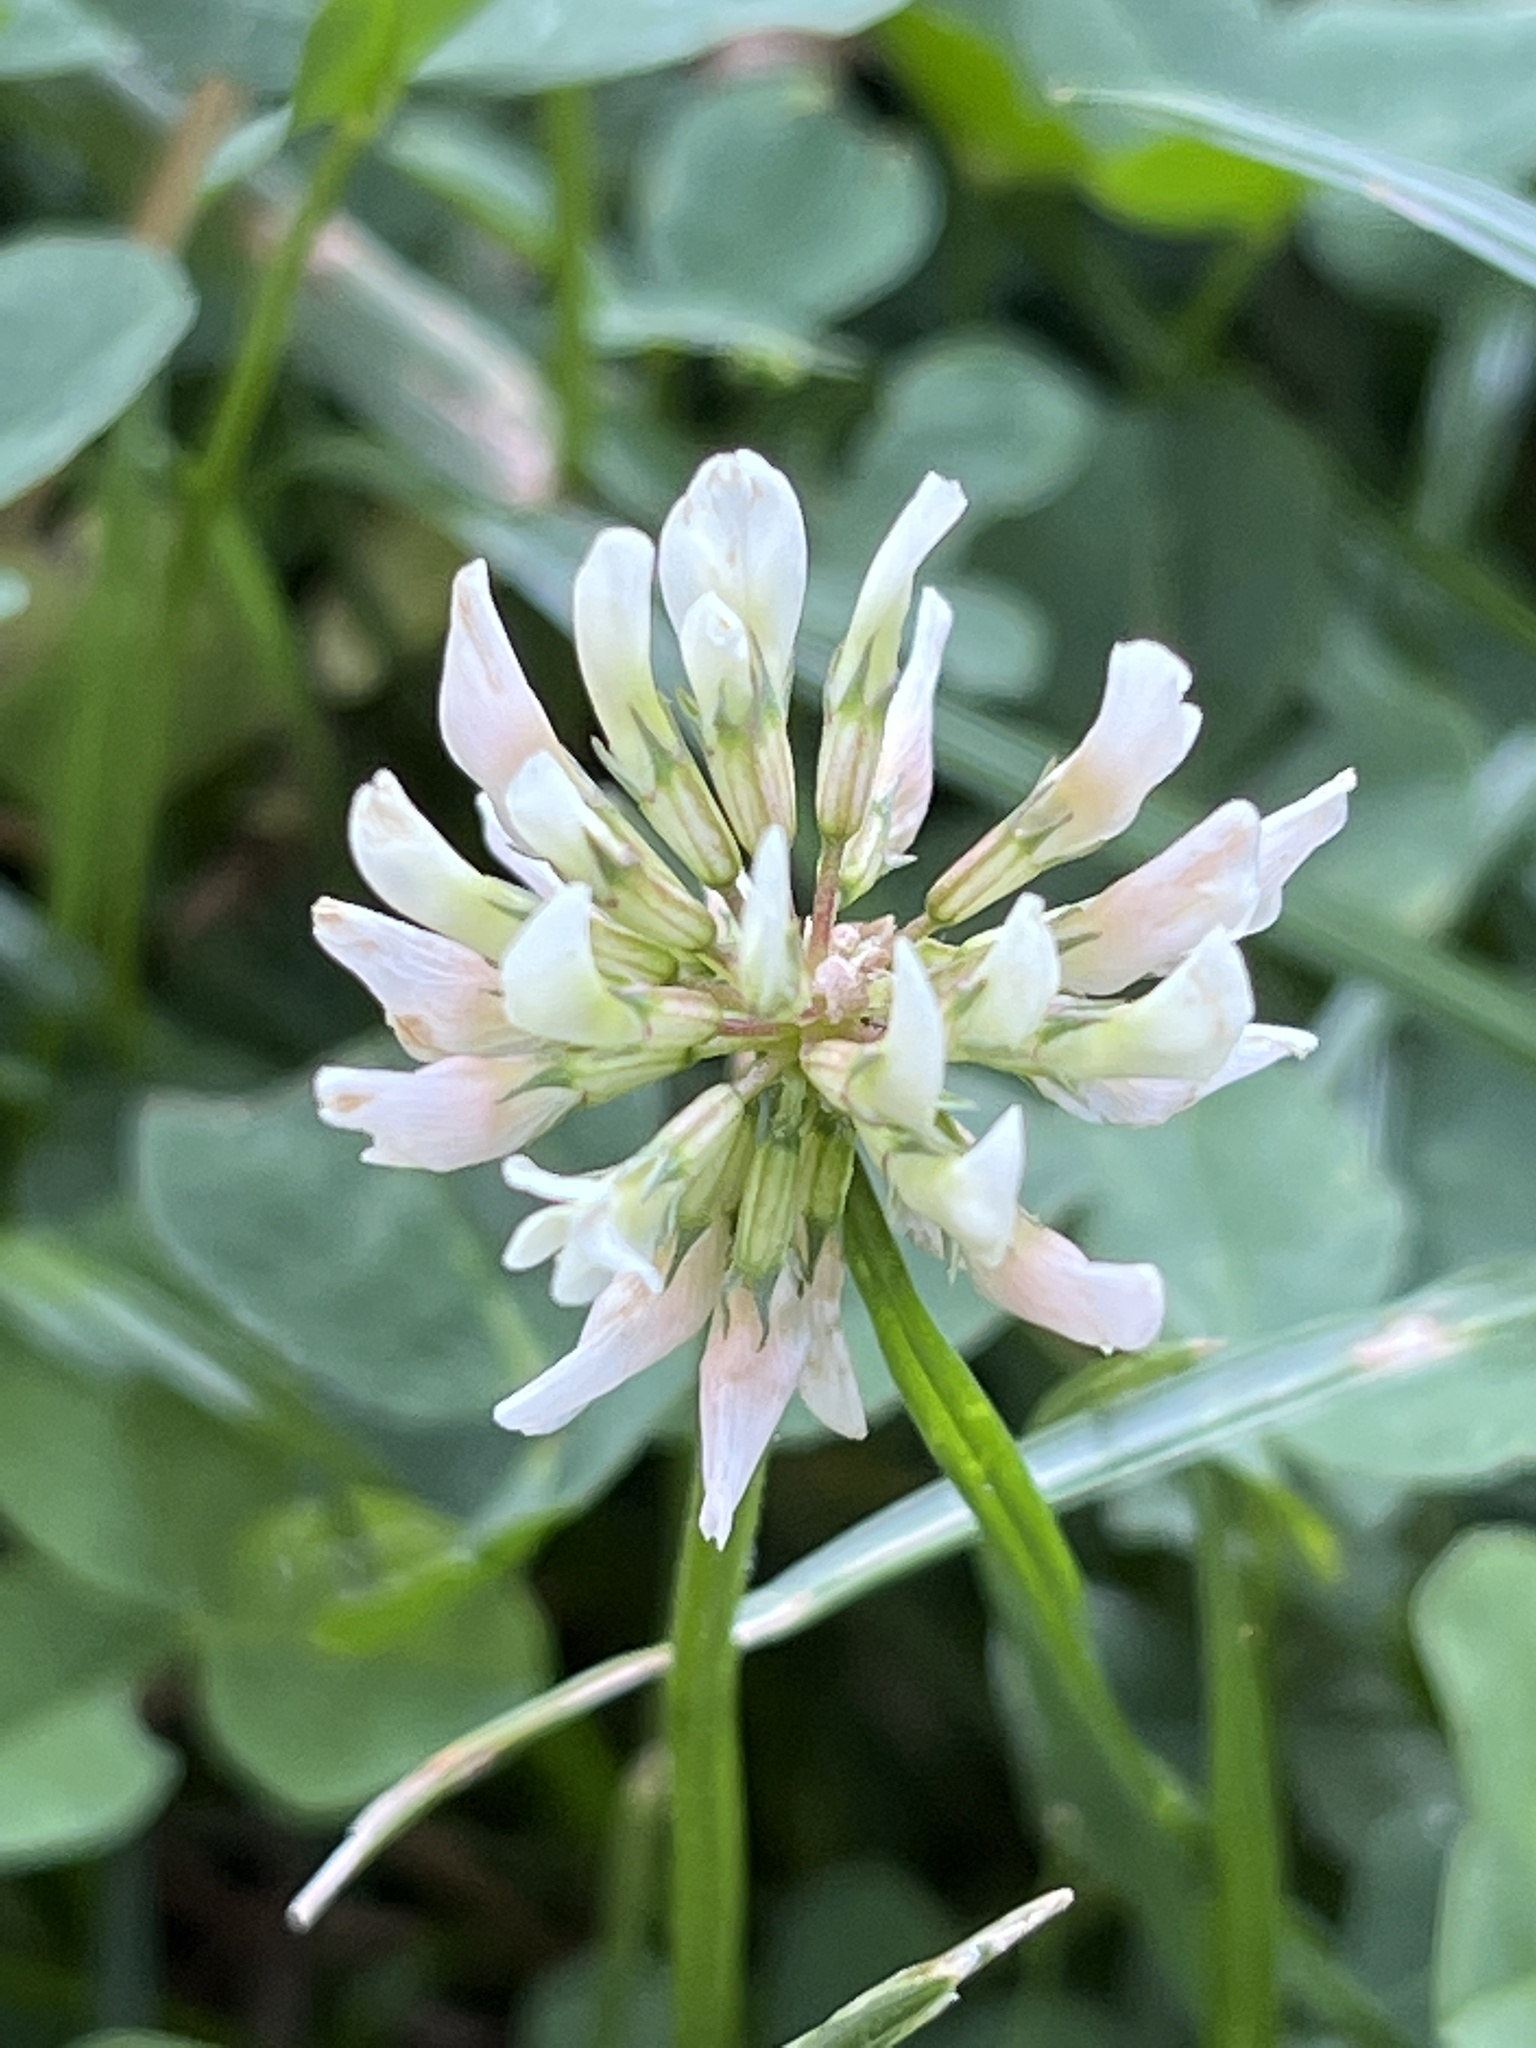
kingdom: Plantae
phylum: Tracheophyta
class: Magnoliopsida
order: Fabales
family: Fabaceae
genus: Trifolium
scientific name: Trifolium repens
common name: White clover
